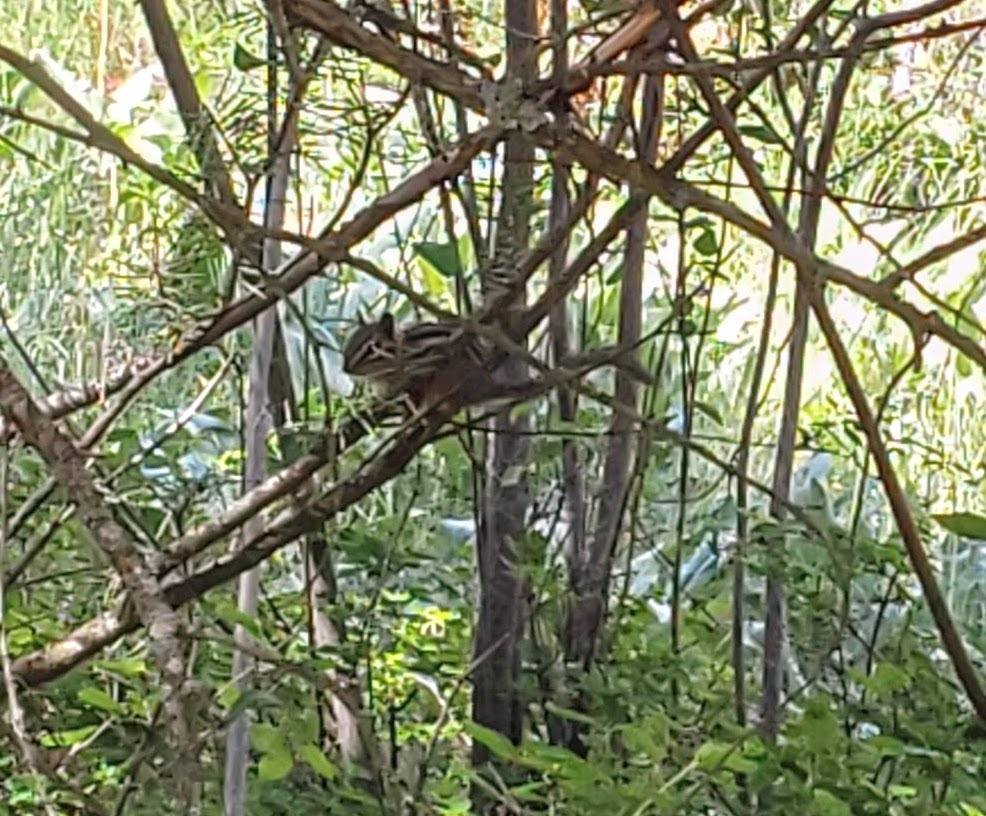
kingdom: Animalia
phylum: Chordata
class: Mammalia
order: Rodentia
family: Sciuridae
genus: Tamias
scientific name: Tamias amoenus
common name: Yellow-pine chipmunk
